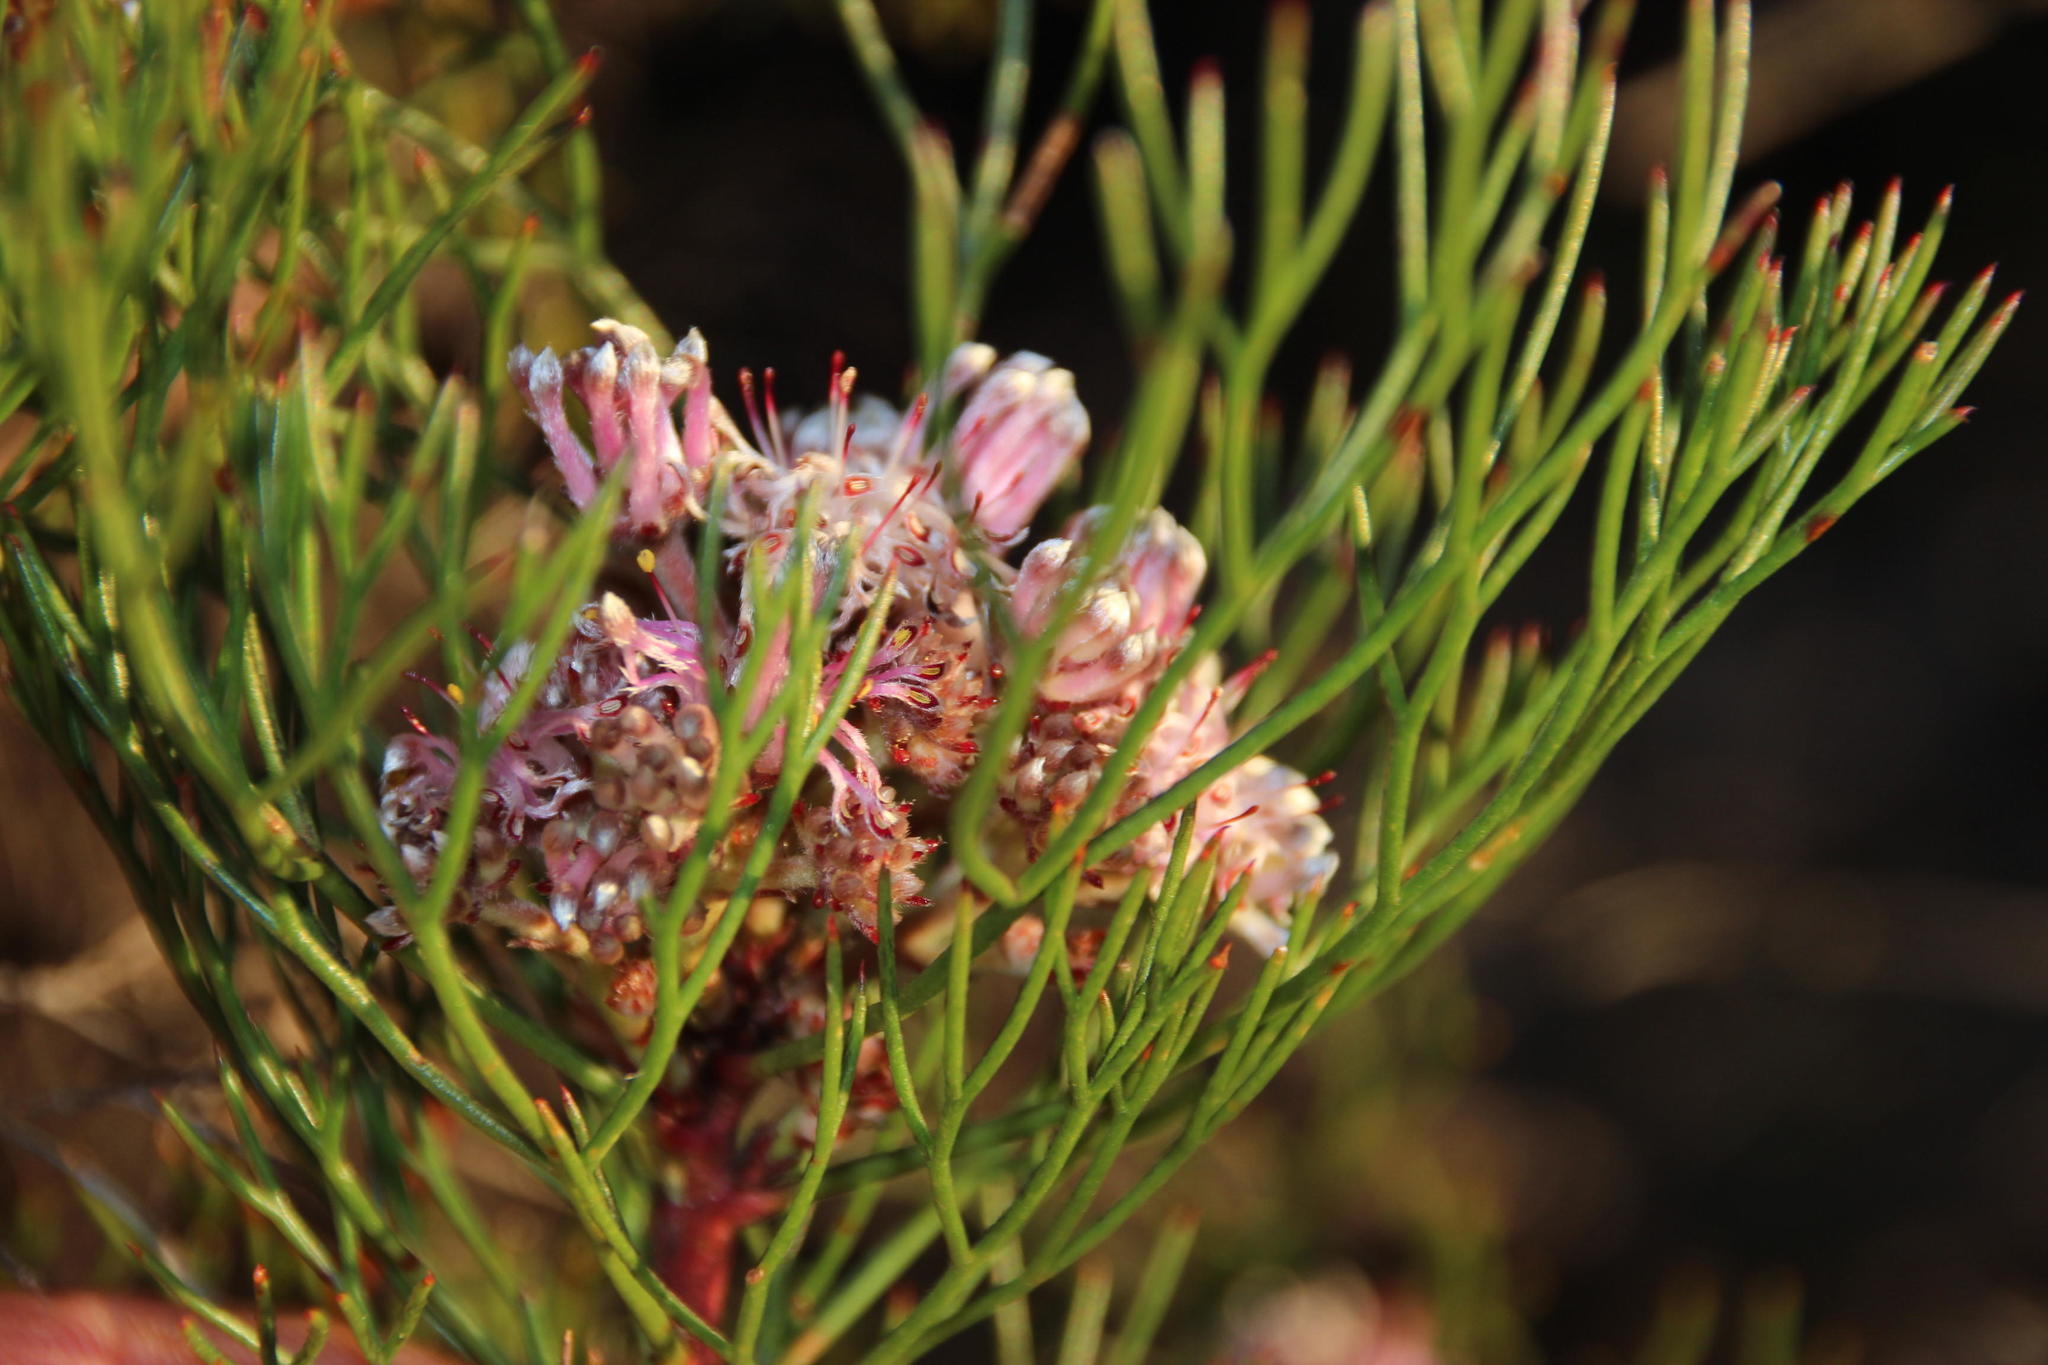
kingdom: Plantae
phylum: Tracheophyta
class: Magnoliopsida
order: Proteales
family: Proteaceae
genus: Serruria
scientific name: Serruria fasciflora
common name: Common pin spiderhead
